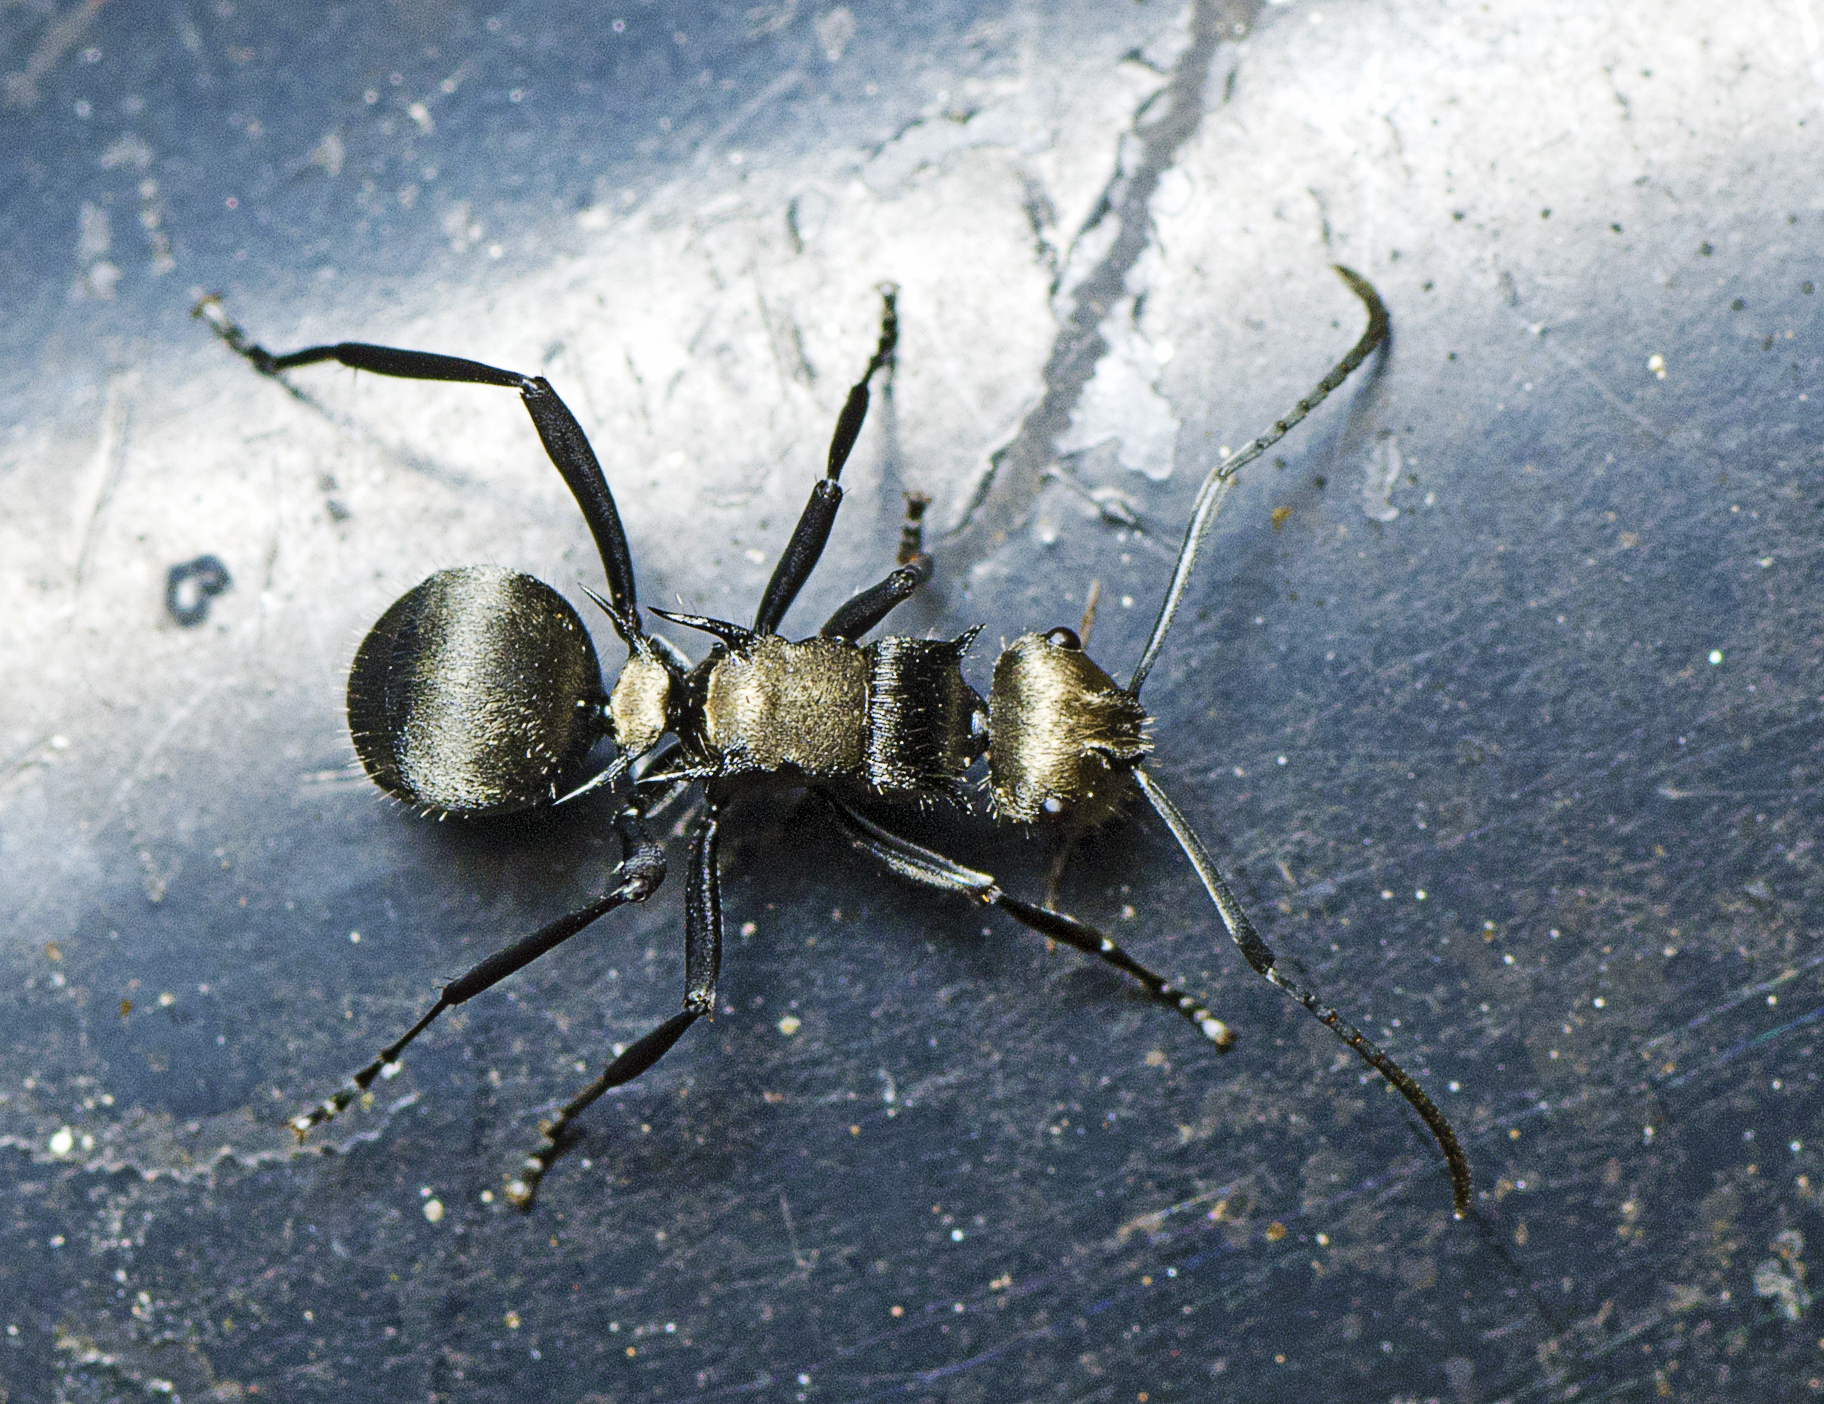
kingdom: Animalia
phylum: Arthropoda
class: Insecta
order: Hymenoptera
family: Formicidae
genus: Polyrhachis
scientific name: Polyrhachis daemeli
